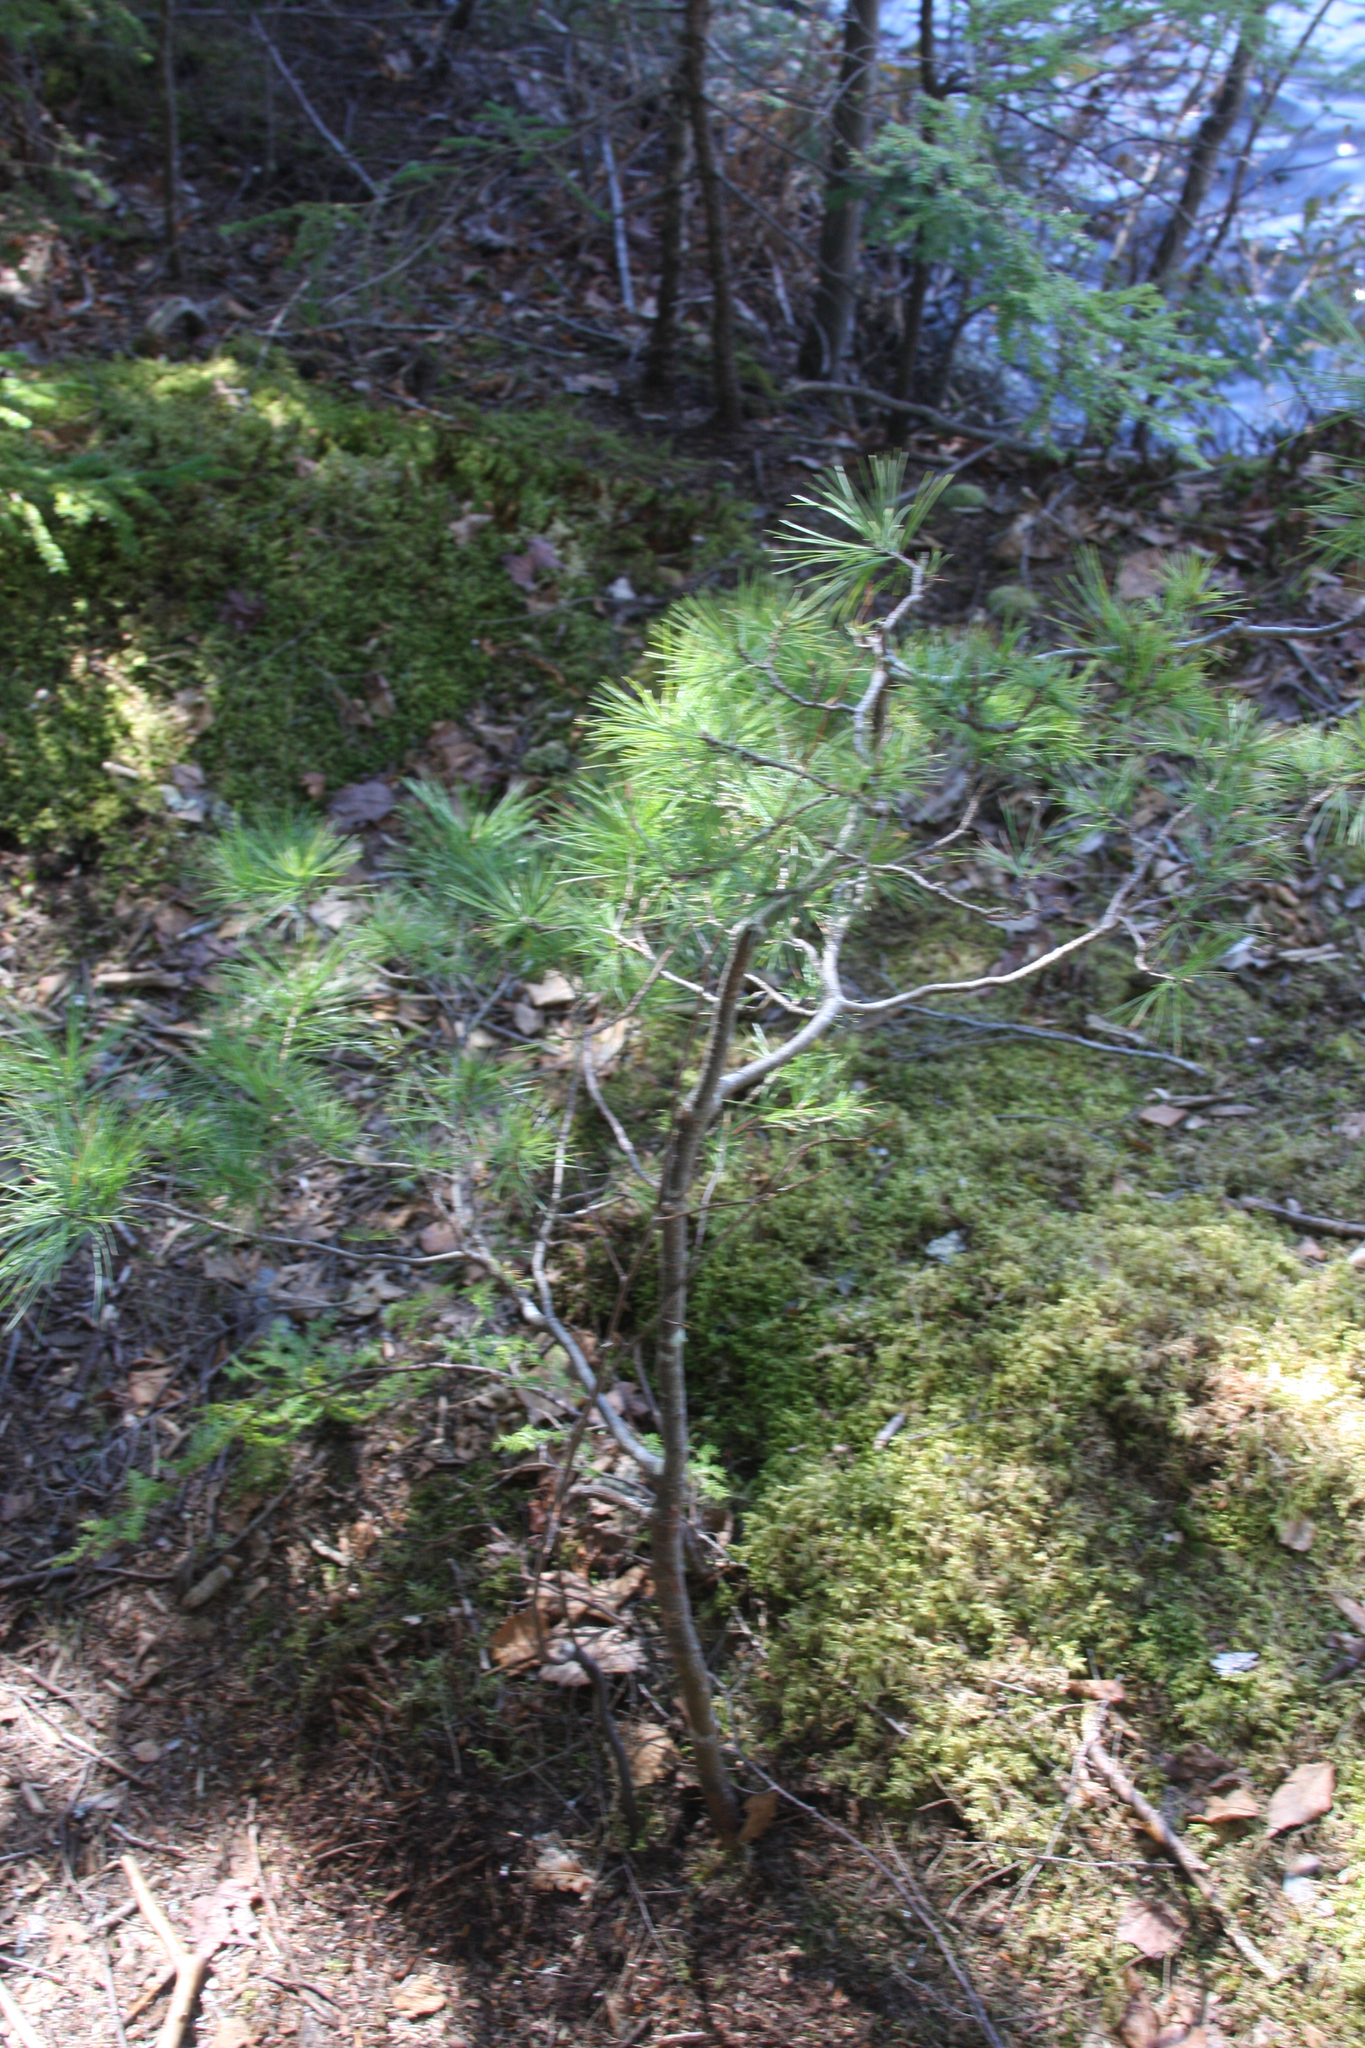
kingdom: Plantae
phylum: Tracheophyta
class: Pinopsida
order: Pinales
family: Pinaceae
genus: Pinus
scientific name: Pinus strobus
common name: Weymouth pine
